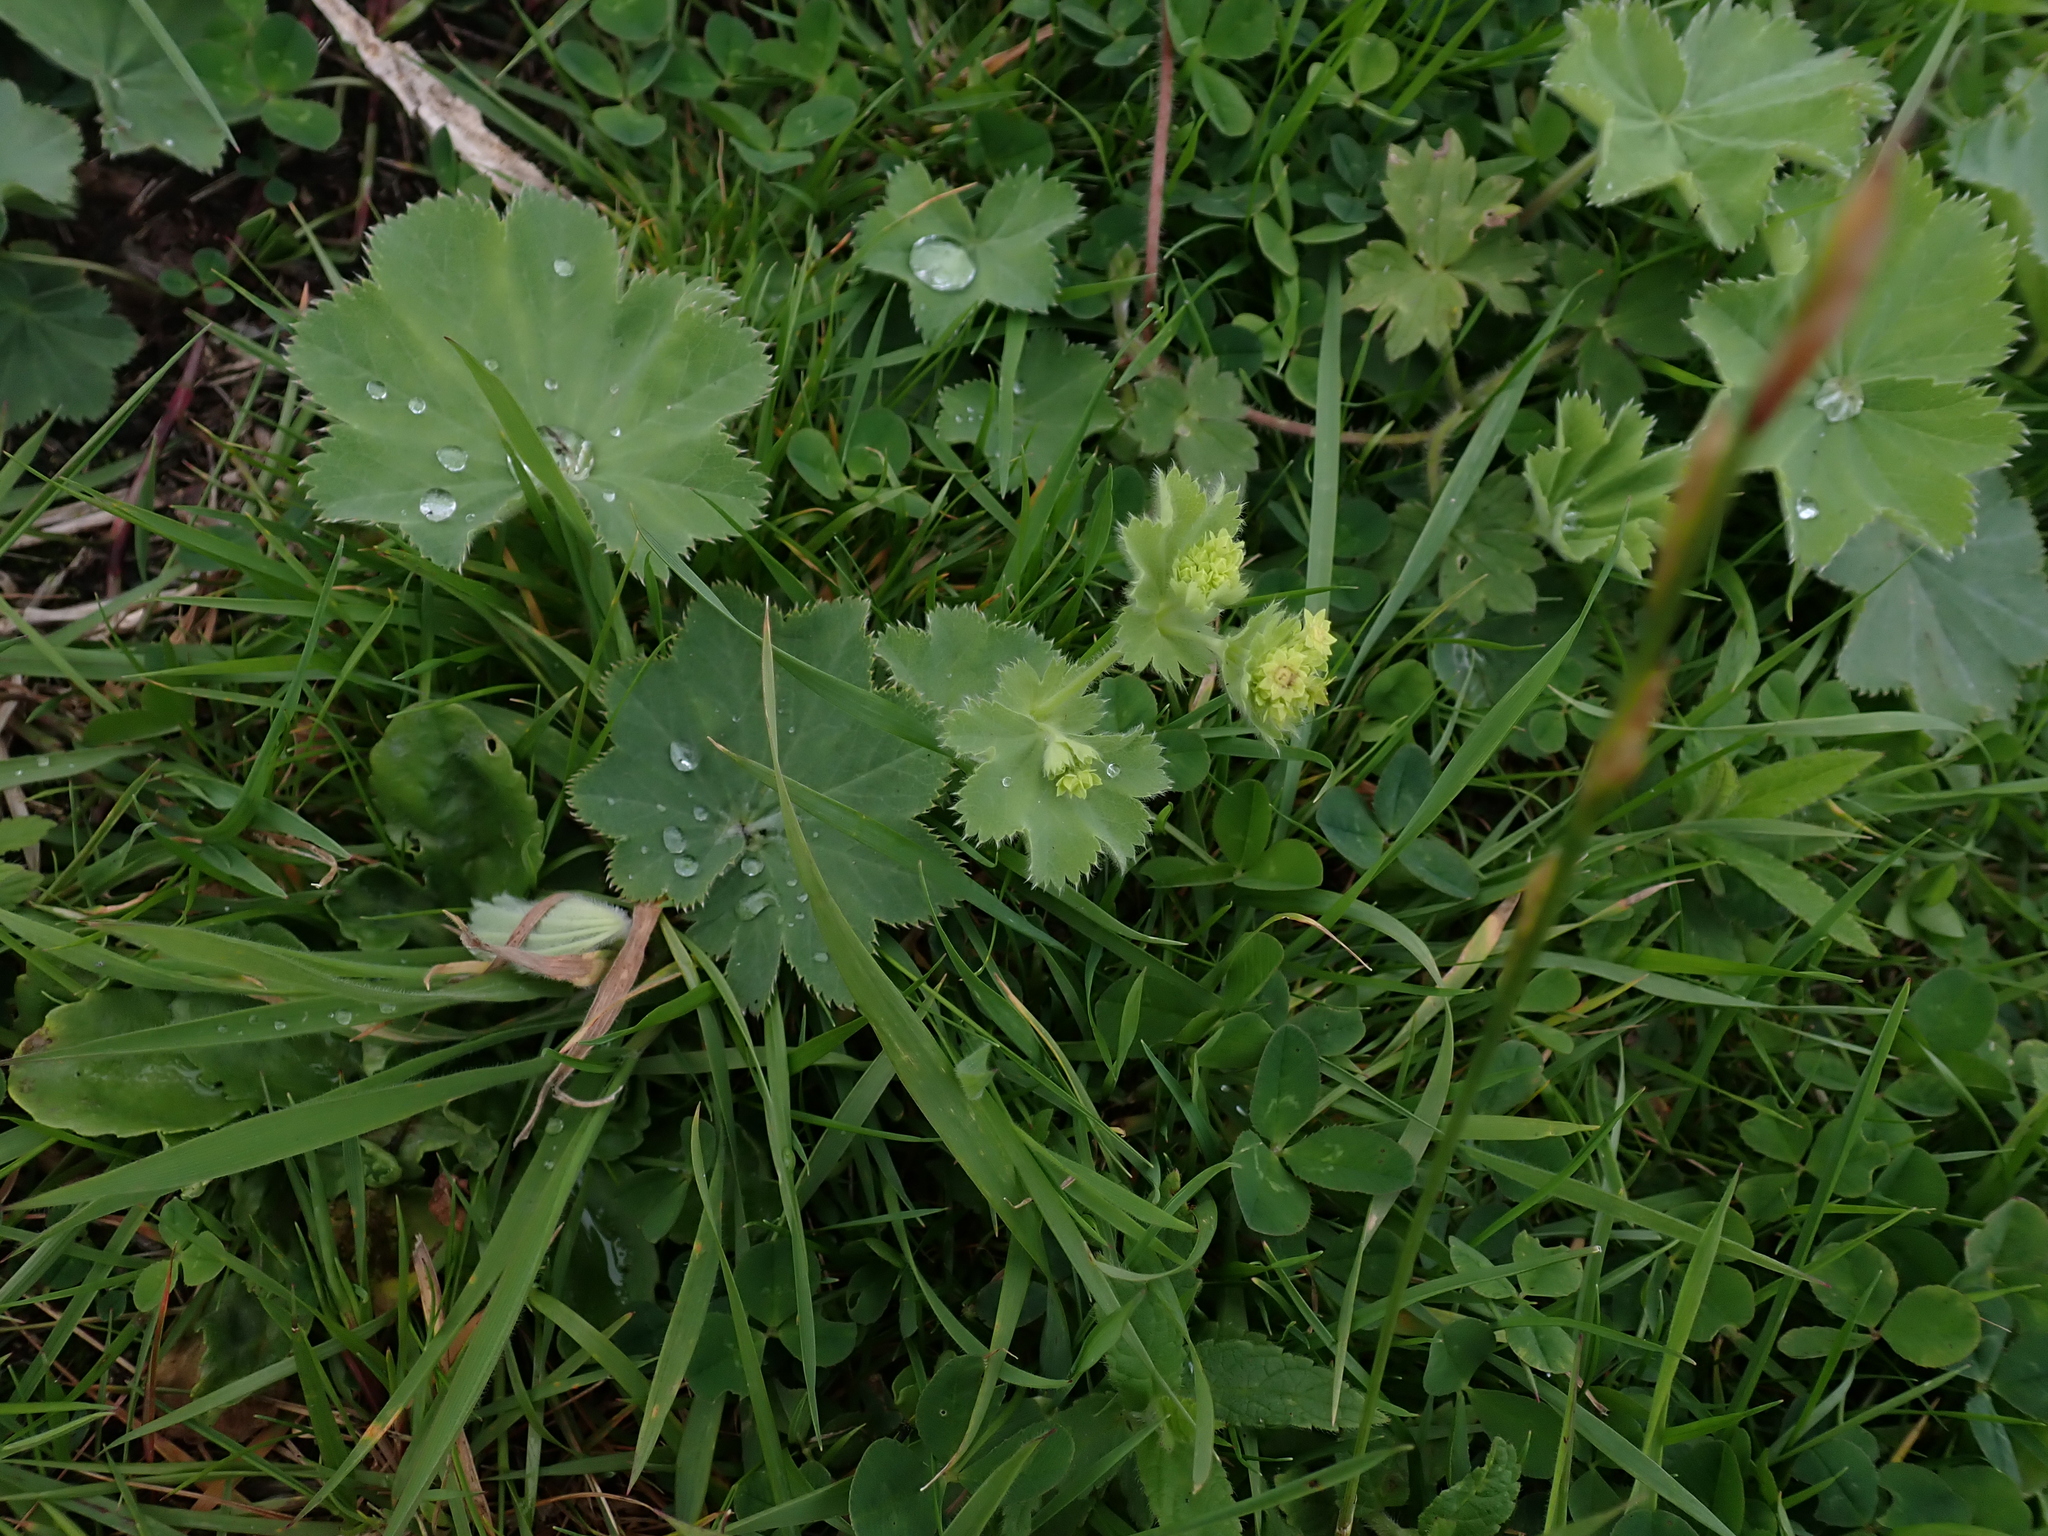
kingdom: Plantae
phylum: Tracheophyta
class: Magnoliopsida
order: Rosales
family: Rosaceae
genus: Alchemilla
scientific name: Alchemilla mollis
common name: Lady's-mantle
